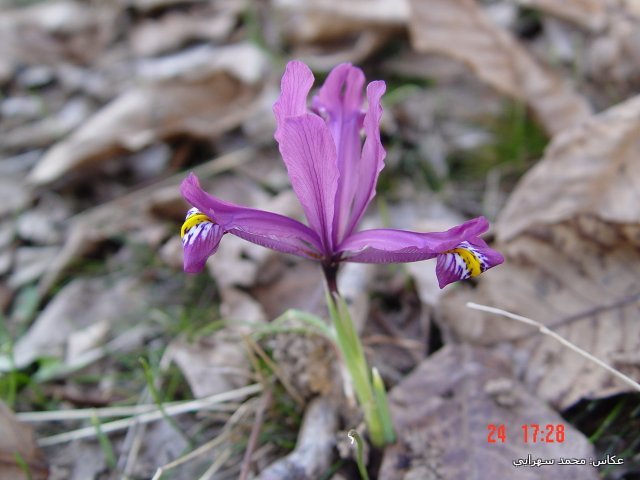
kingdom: Plantae
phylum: Tracheophyta
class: Liliopsida
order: Asparagales
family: Iridaceae
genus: Iris
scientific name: Iris reticulata
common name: Netted iris
